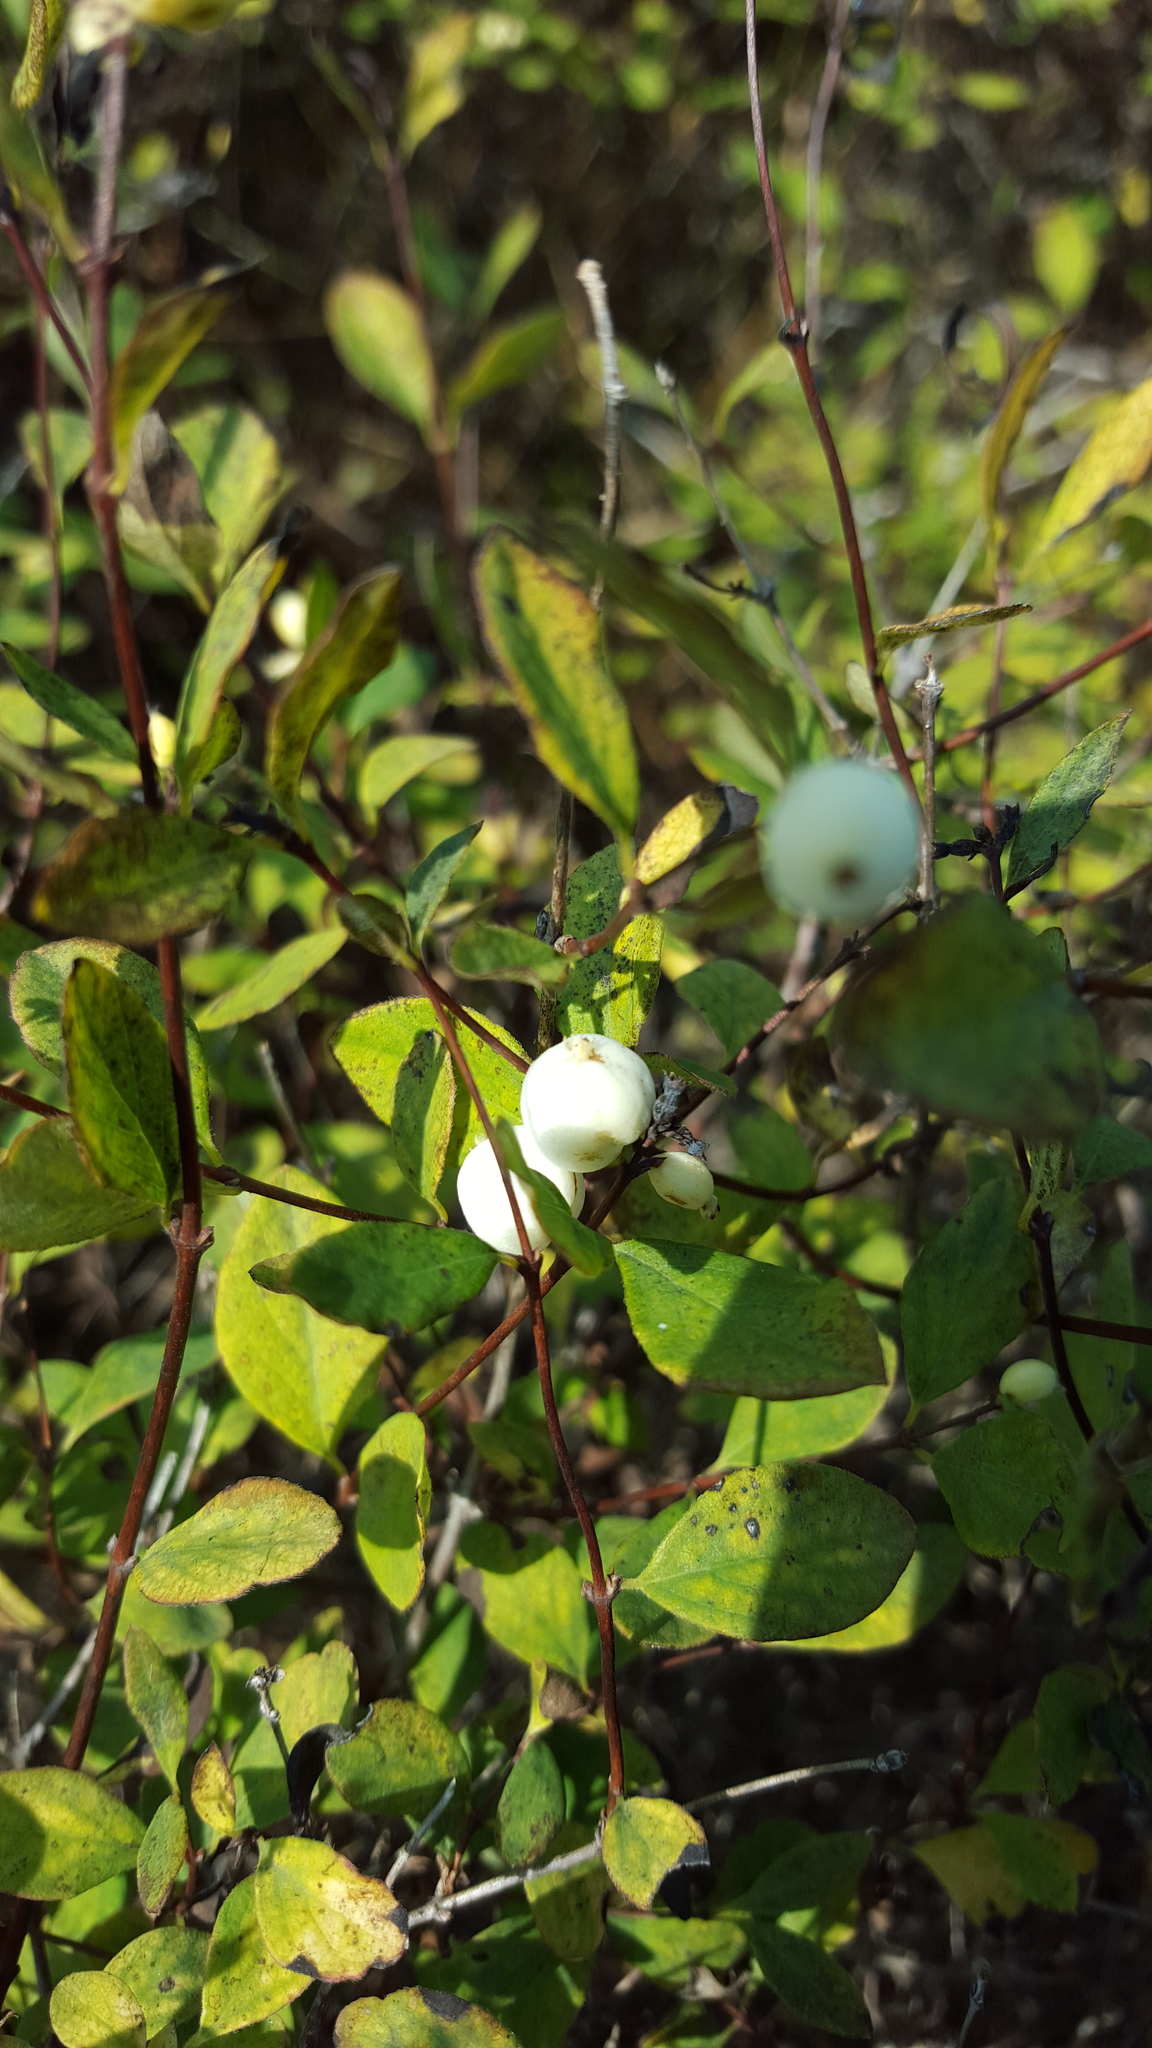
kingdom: Plantae
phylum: Tracheophyta
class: Magnoliopsida
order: Dipsacales
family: Caprifoliaceae
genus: Symphoricarpos
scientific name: Symphoricarpos albus
